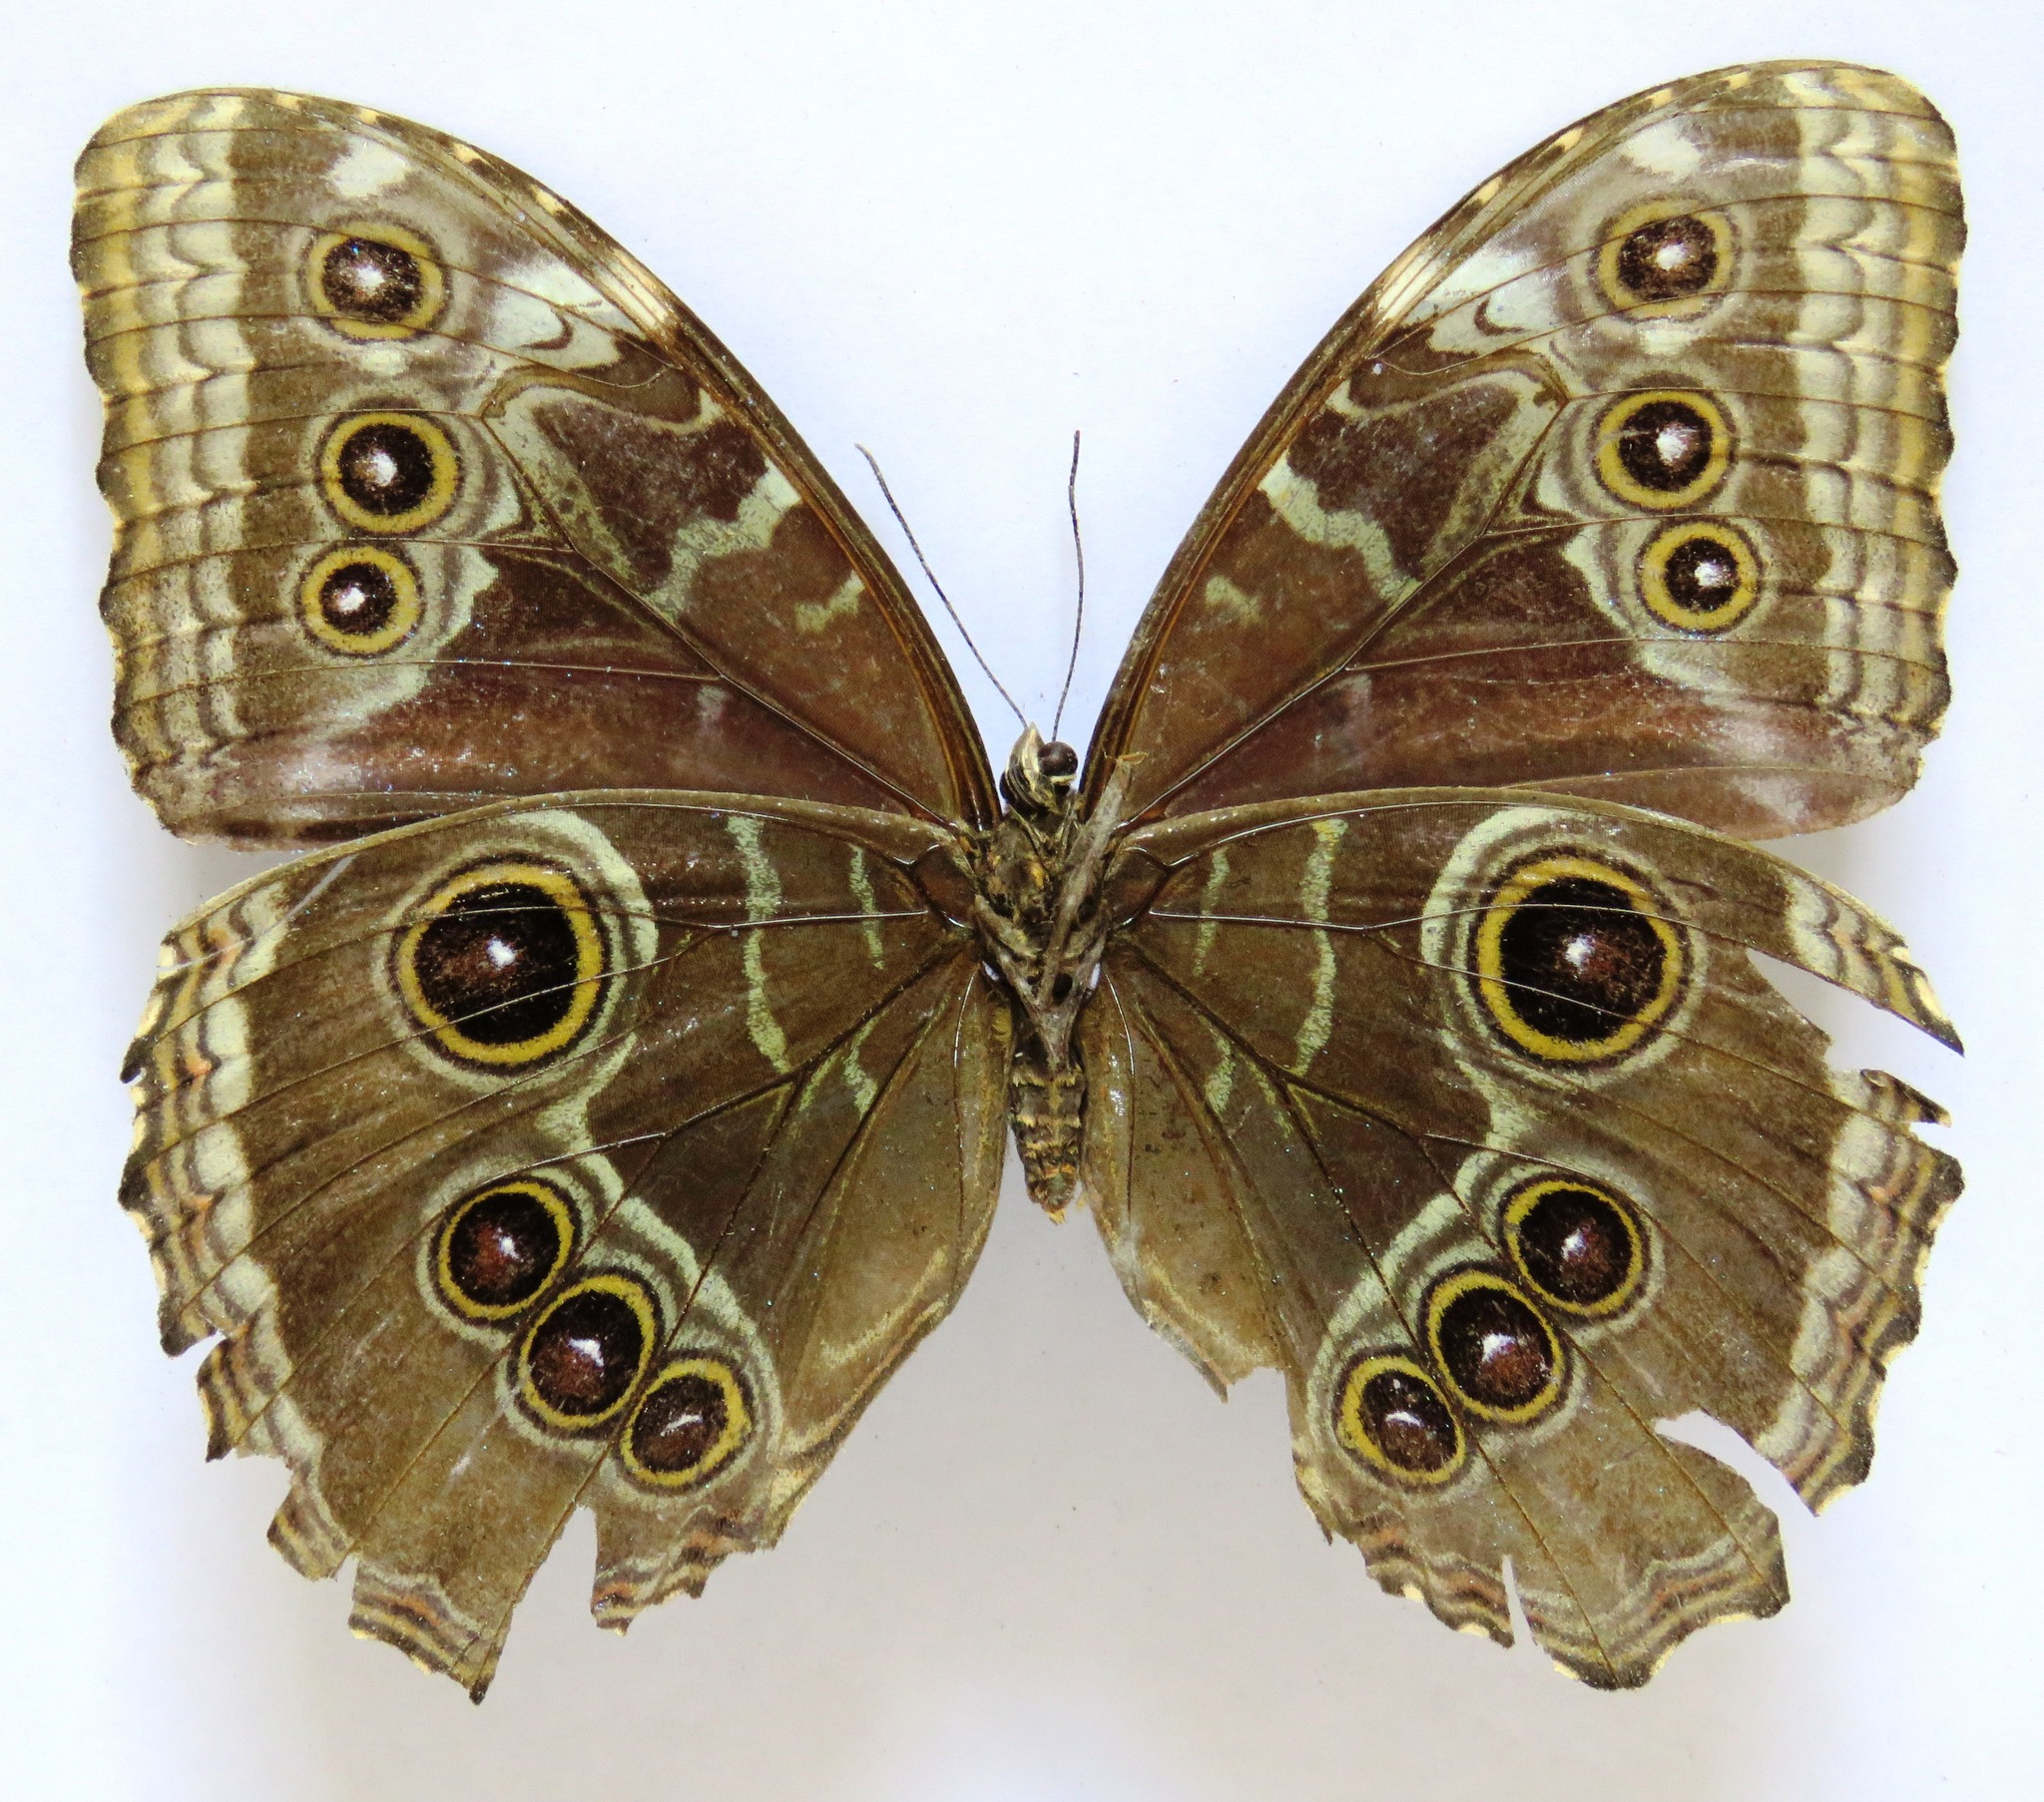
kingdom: Animalia
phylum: Arthropoda
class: Insecta
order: Lepidoptera
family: Nymphalidae
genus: Morpho
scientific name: Morpho helenor
